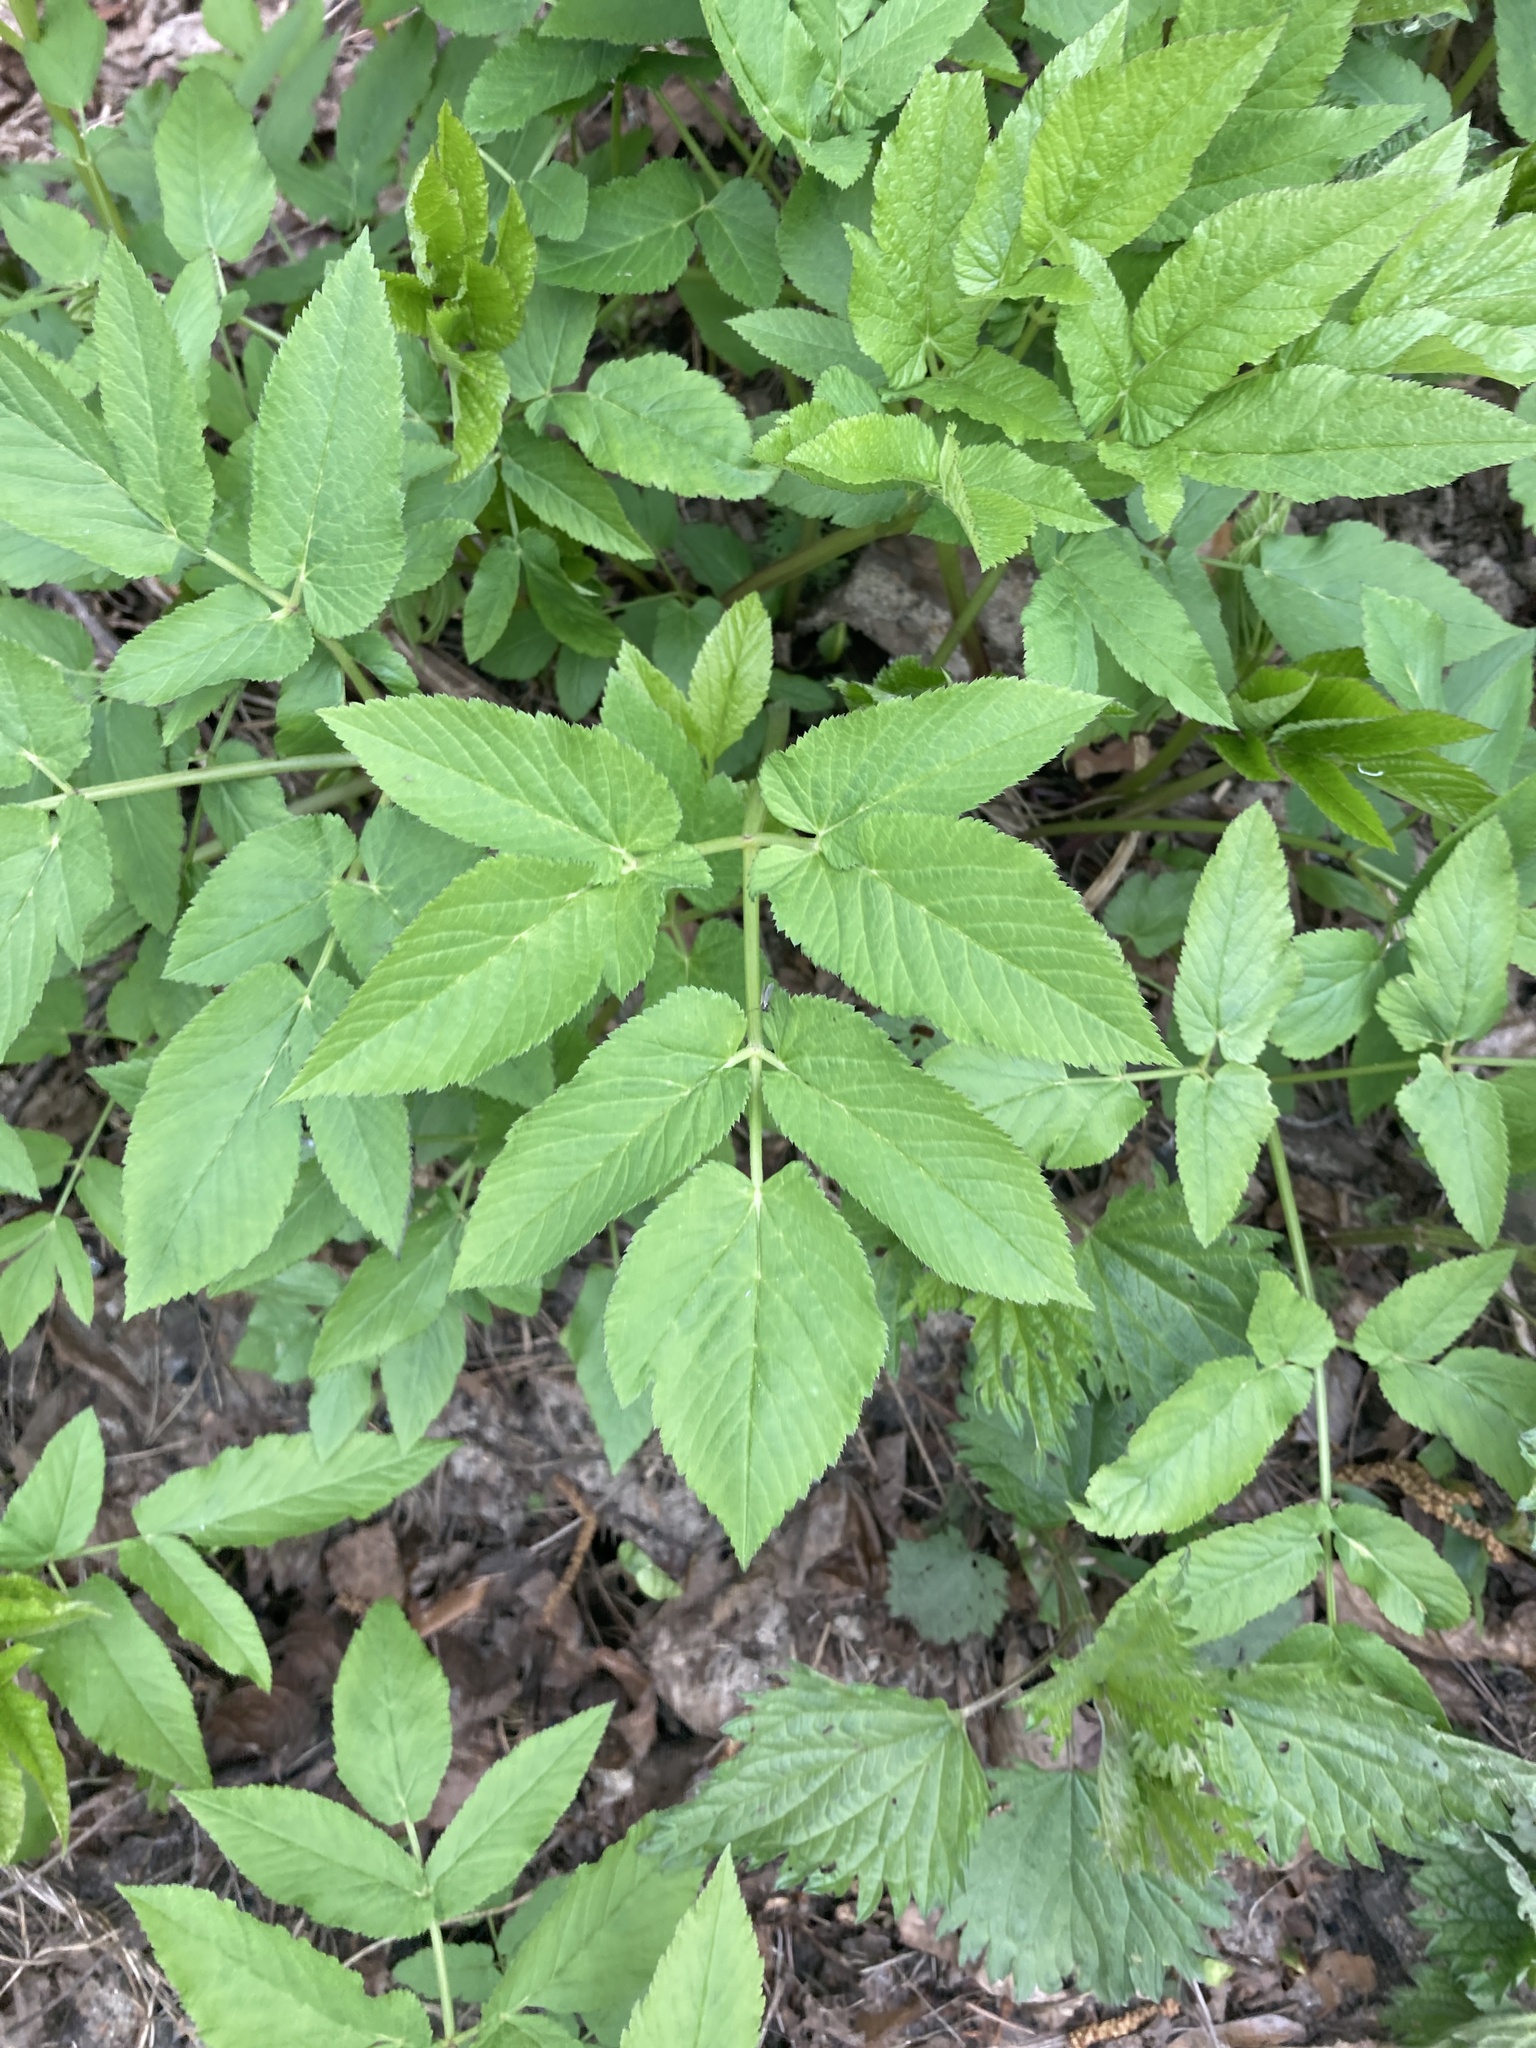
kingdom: Plantae
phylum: Tracheophyta
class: Magnoliopsida
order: Apiales
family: Apiaceae
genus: Aegopodium
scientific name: Aegopodium podagraria
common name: Ground-elder
